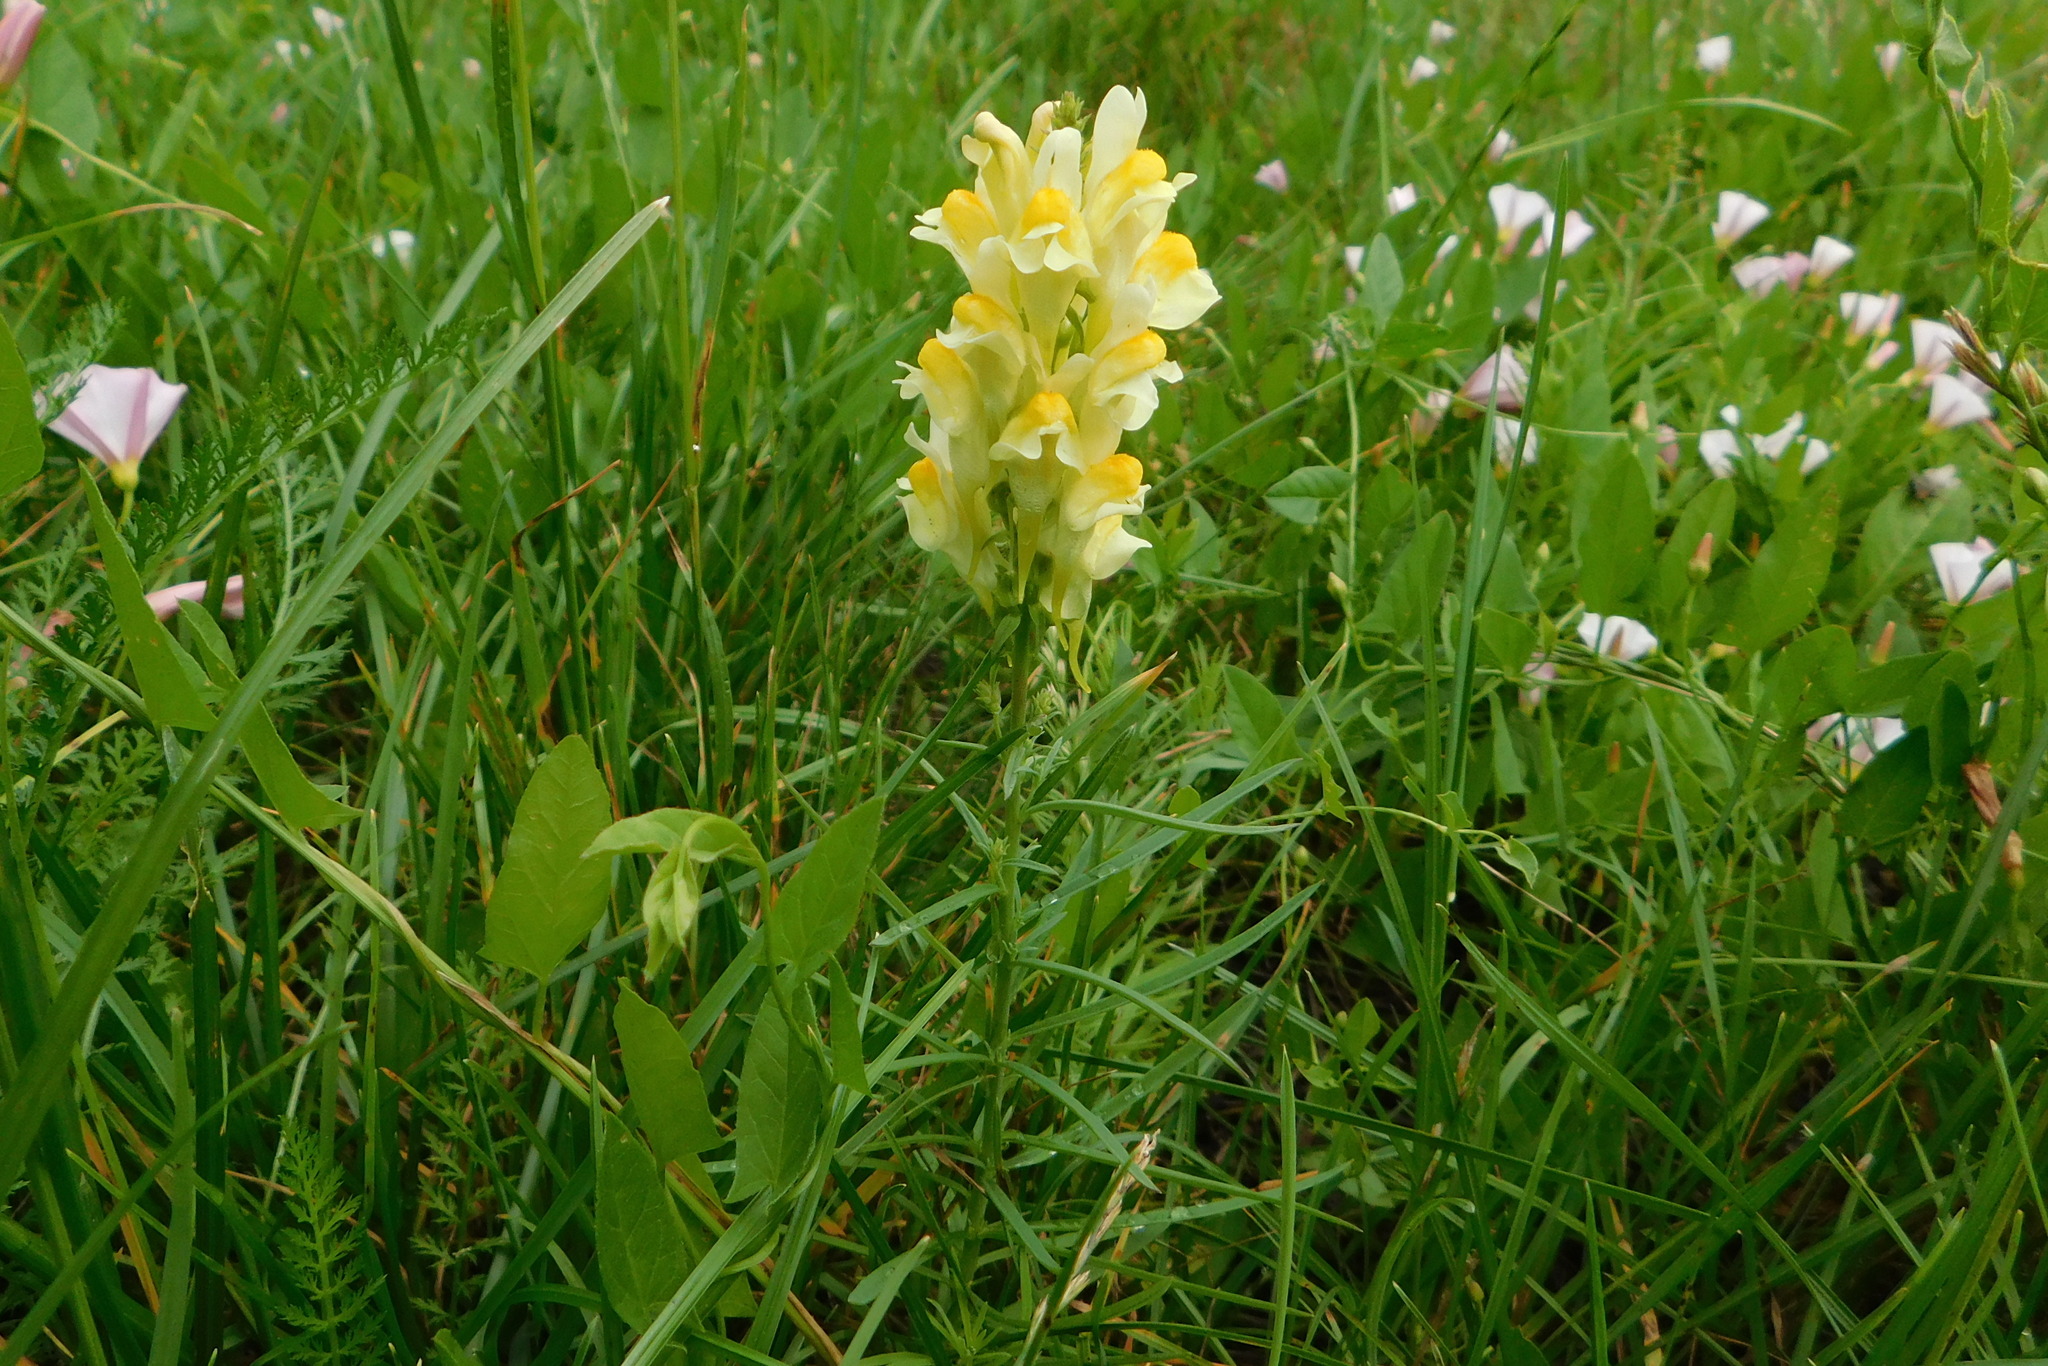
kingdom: Plantae
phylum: Tracheophyta
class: Magnoliopsida
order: Lamiales
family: Plantaginaceae
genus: Linaria
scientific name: Linaria vulgaris
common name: Butter and eggs
